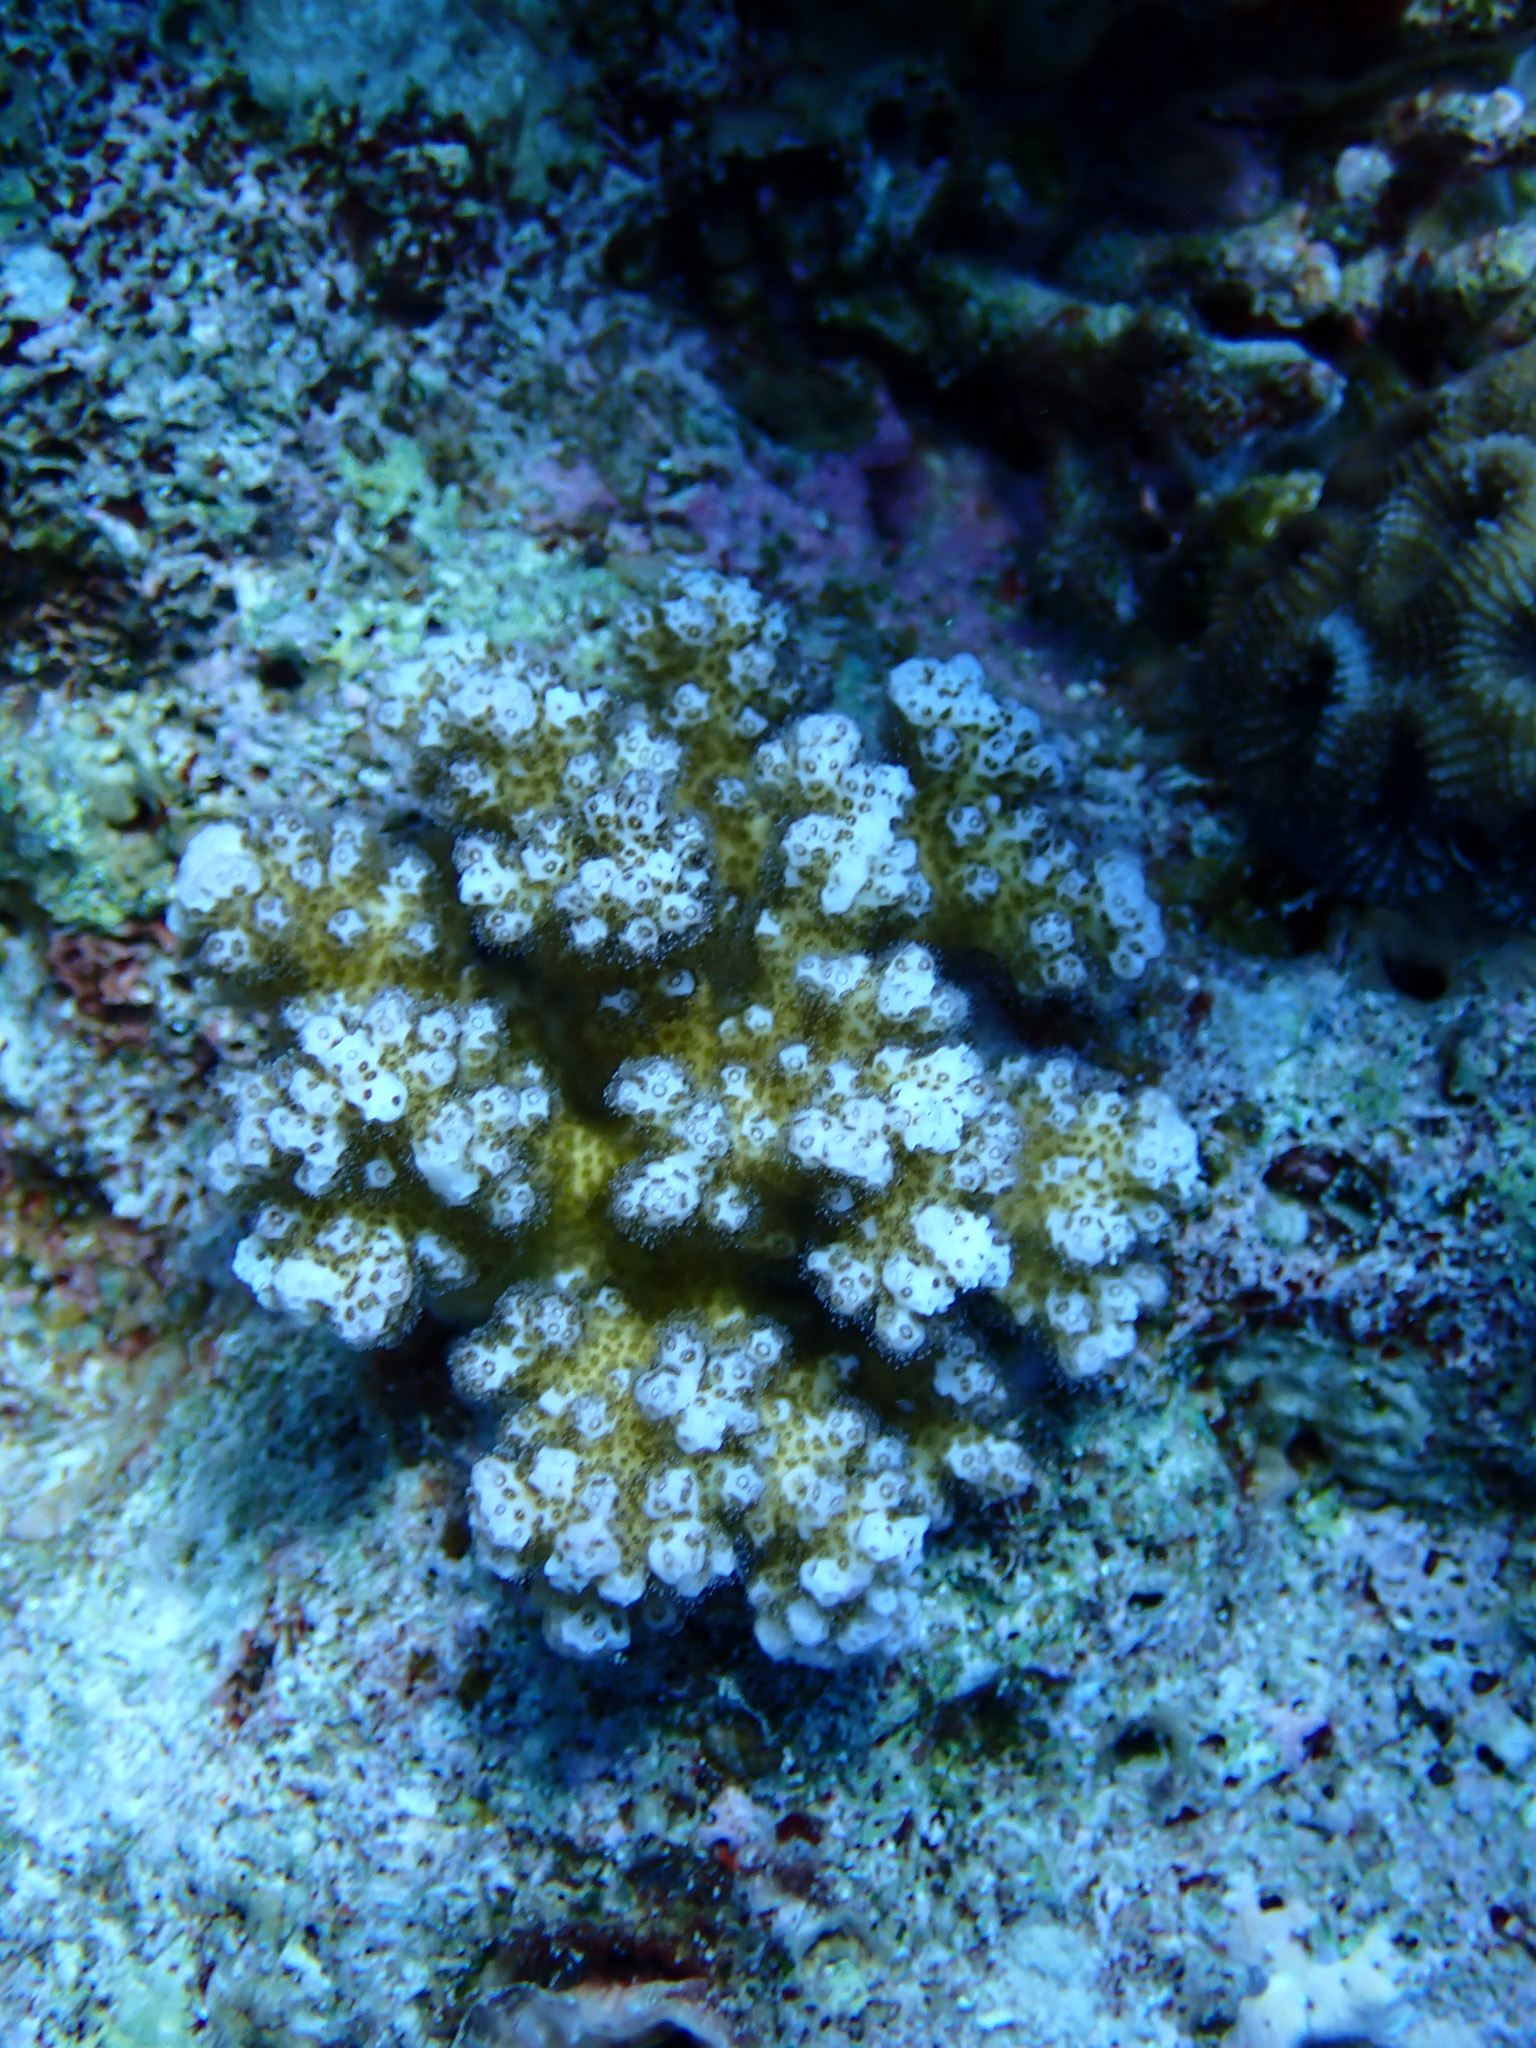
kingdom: Animalia
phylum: Cnidaria
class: Anthozoa
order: Scleractinia
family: Pocilloporidae
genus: Pocillopora
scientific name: Pocillopora verrucosa
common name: Cauliflower coral
